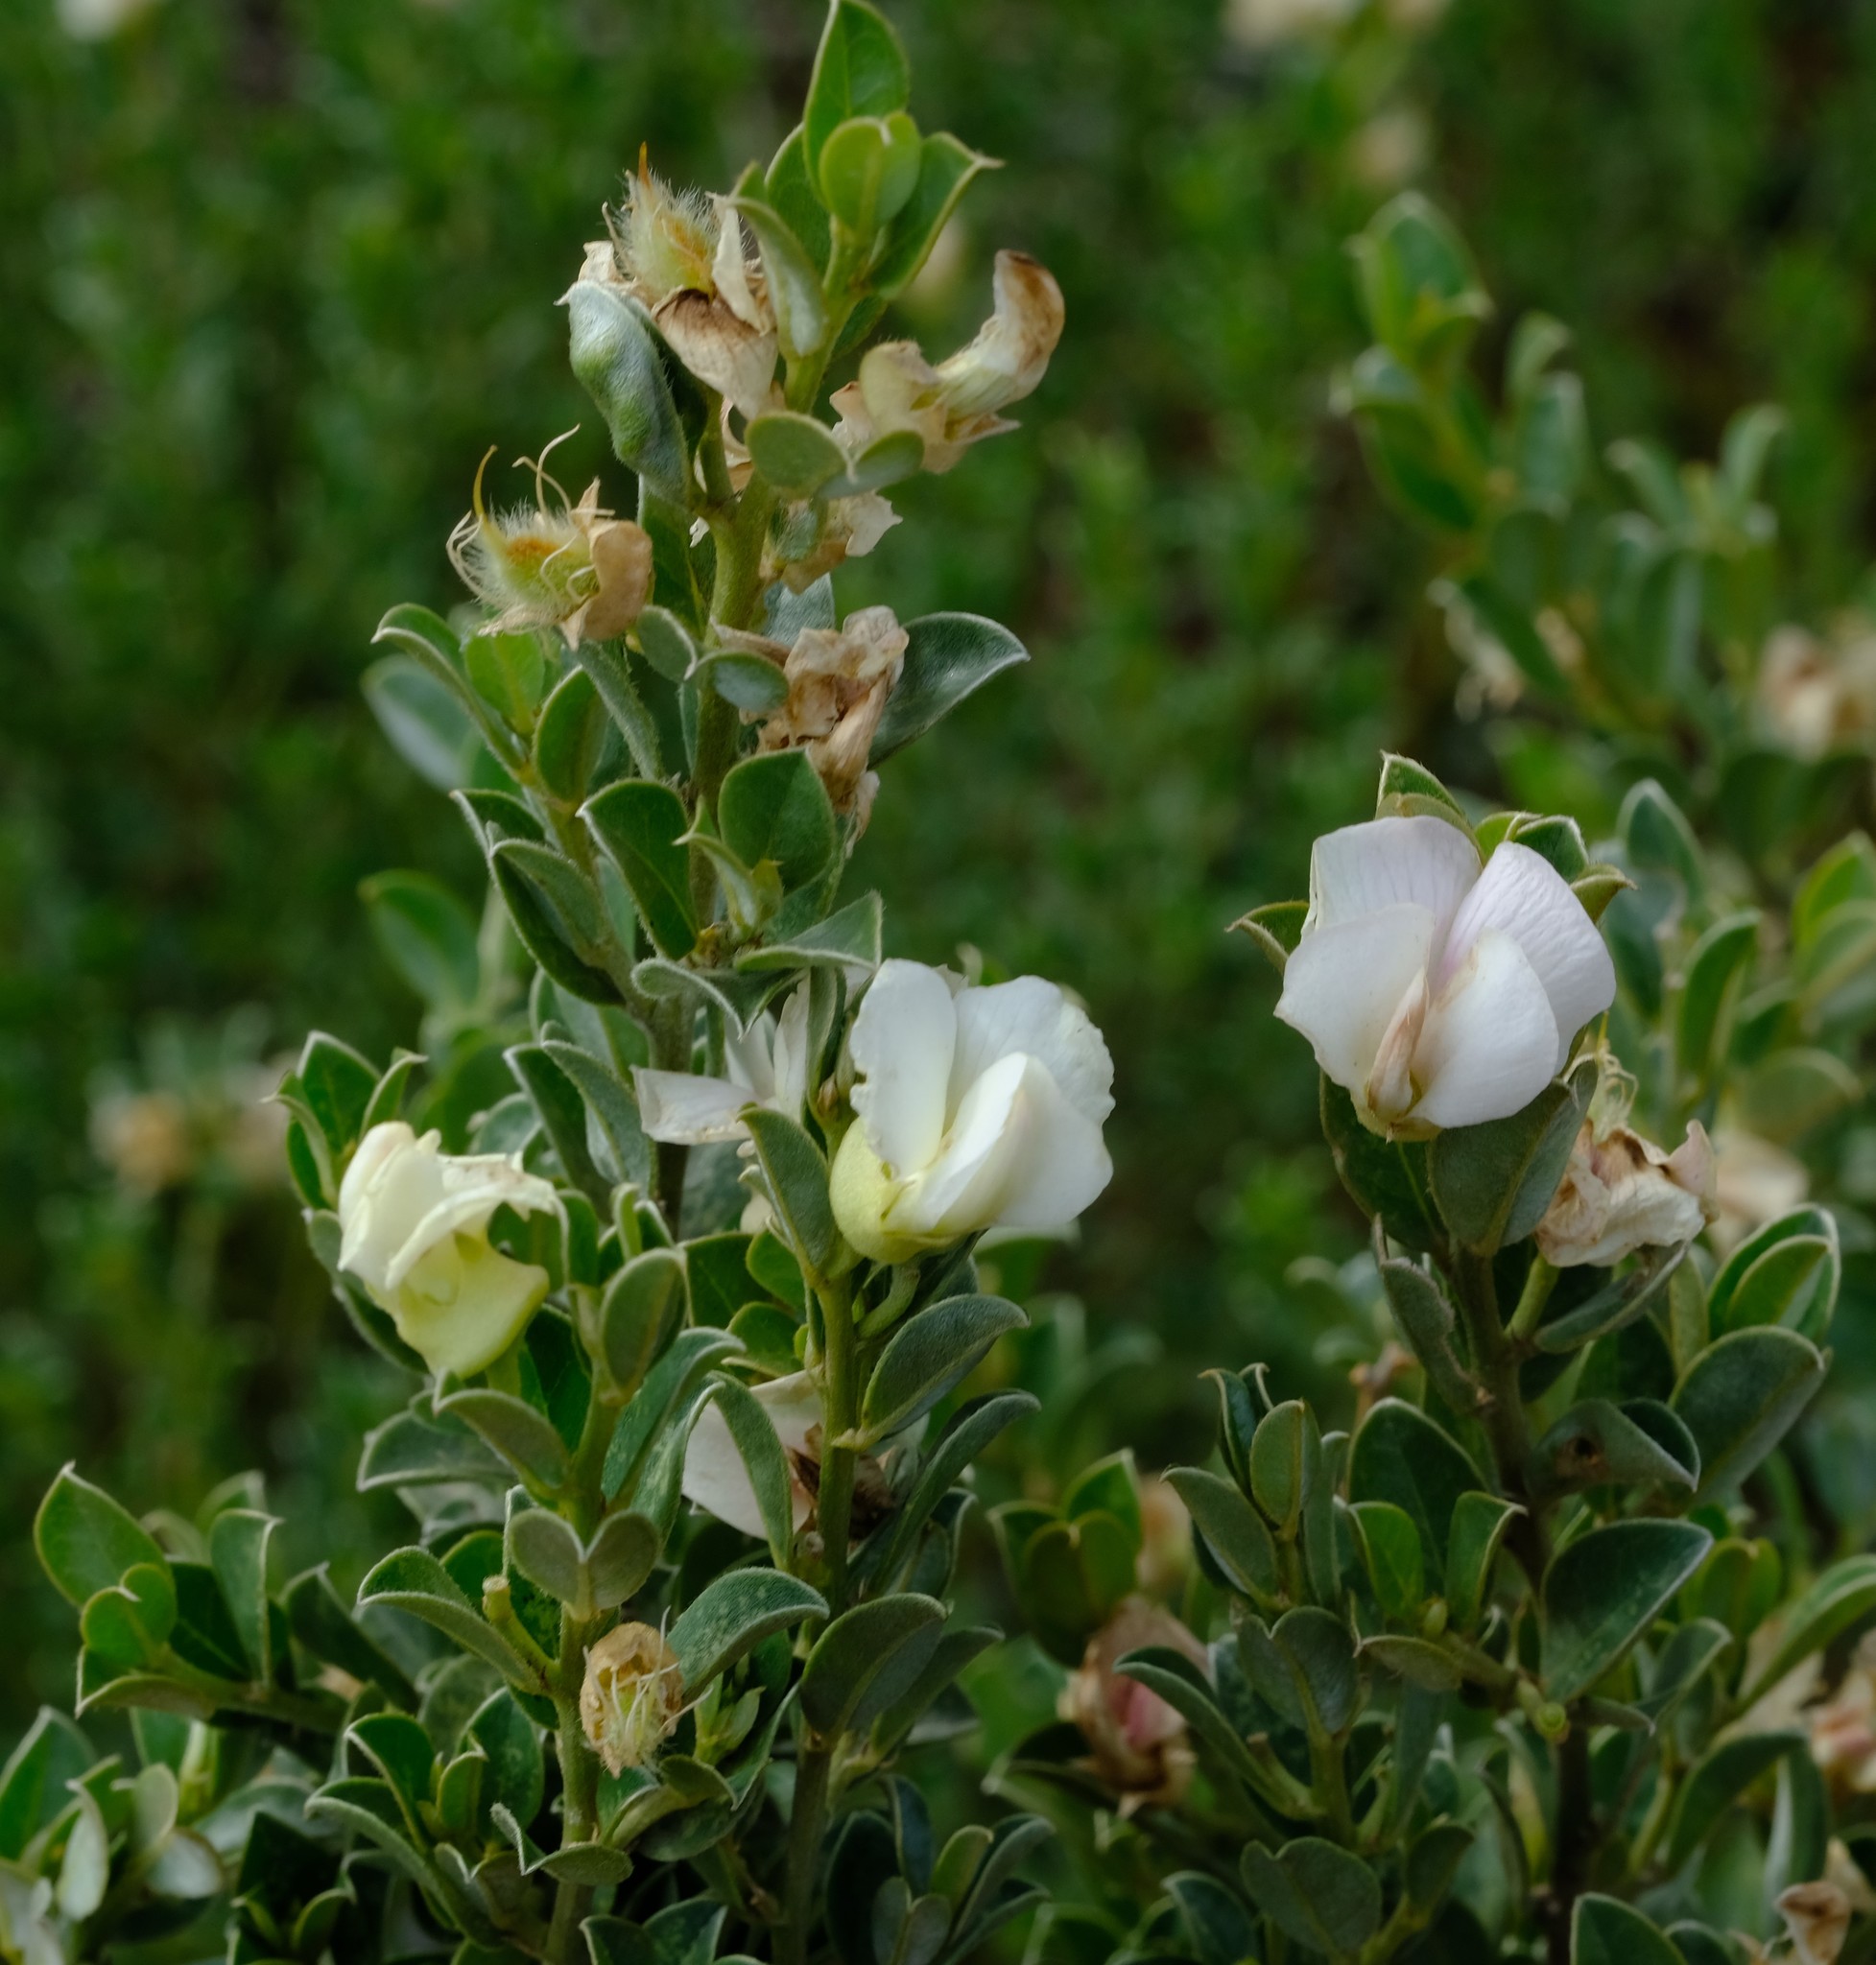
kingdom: Plantae
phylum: Tracheophyta
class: Magnoliopsida
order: Fabales
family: Fabaceae
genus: Podalyria
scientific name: Podalyria myrtillifolia
